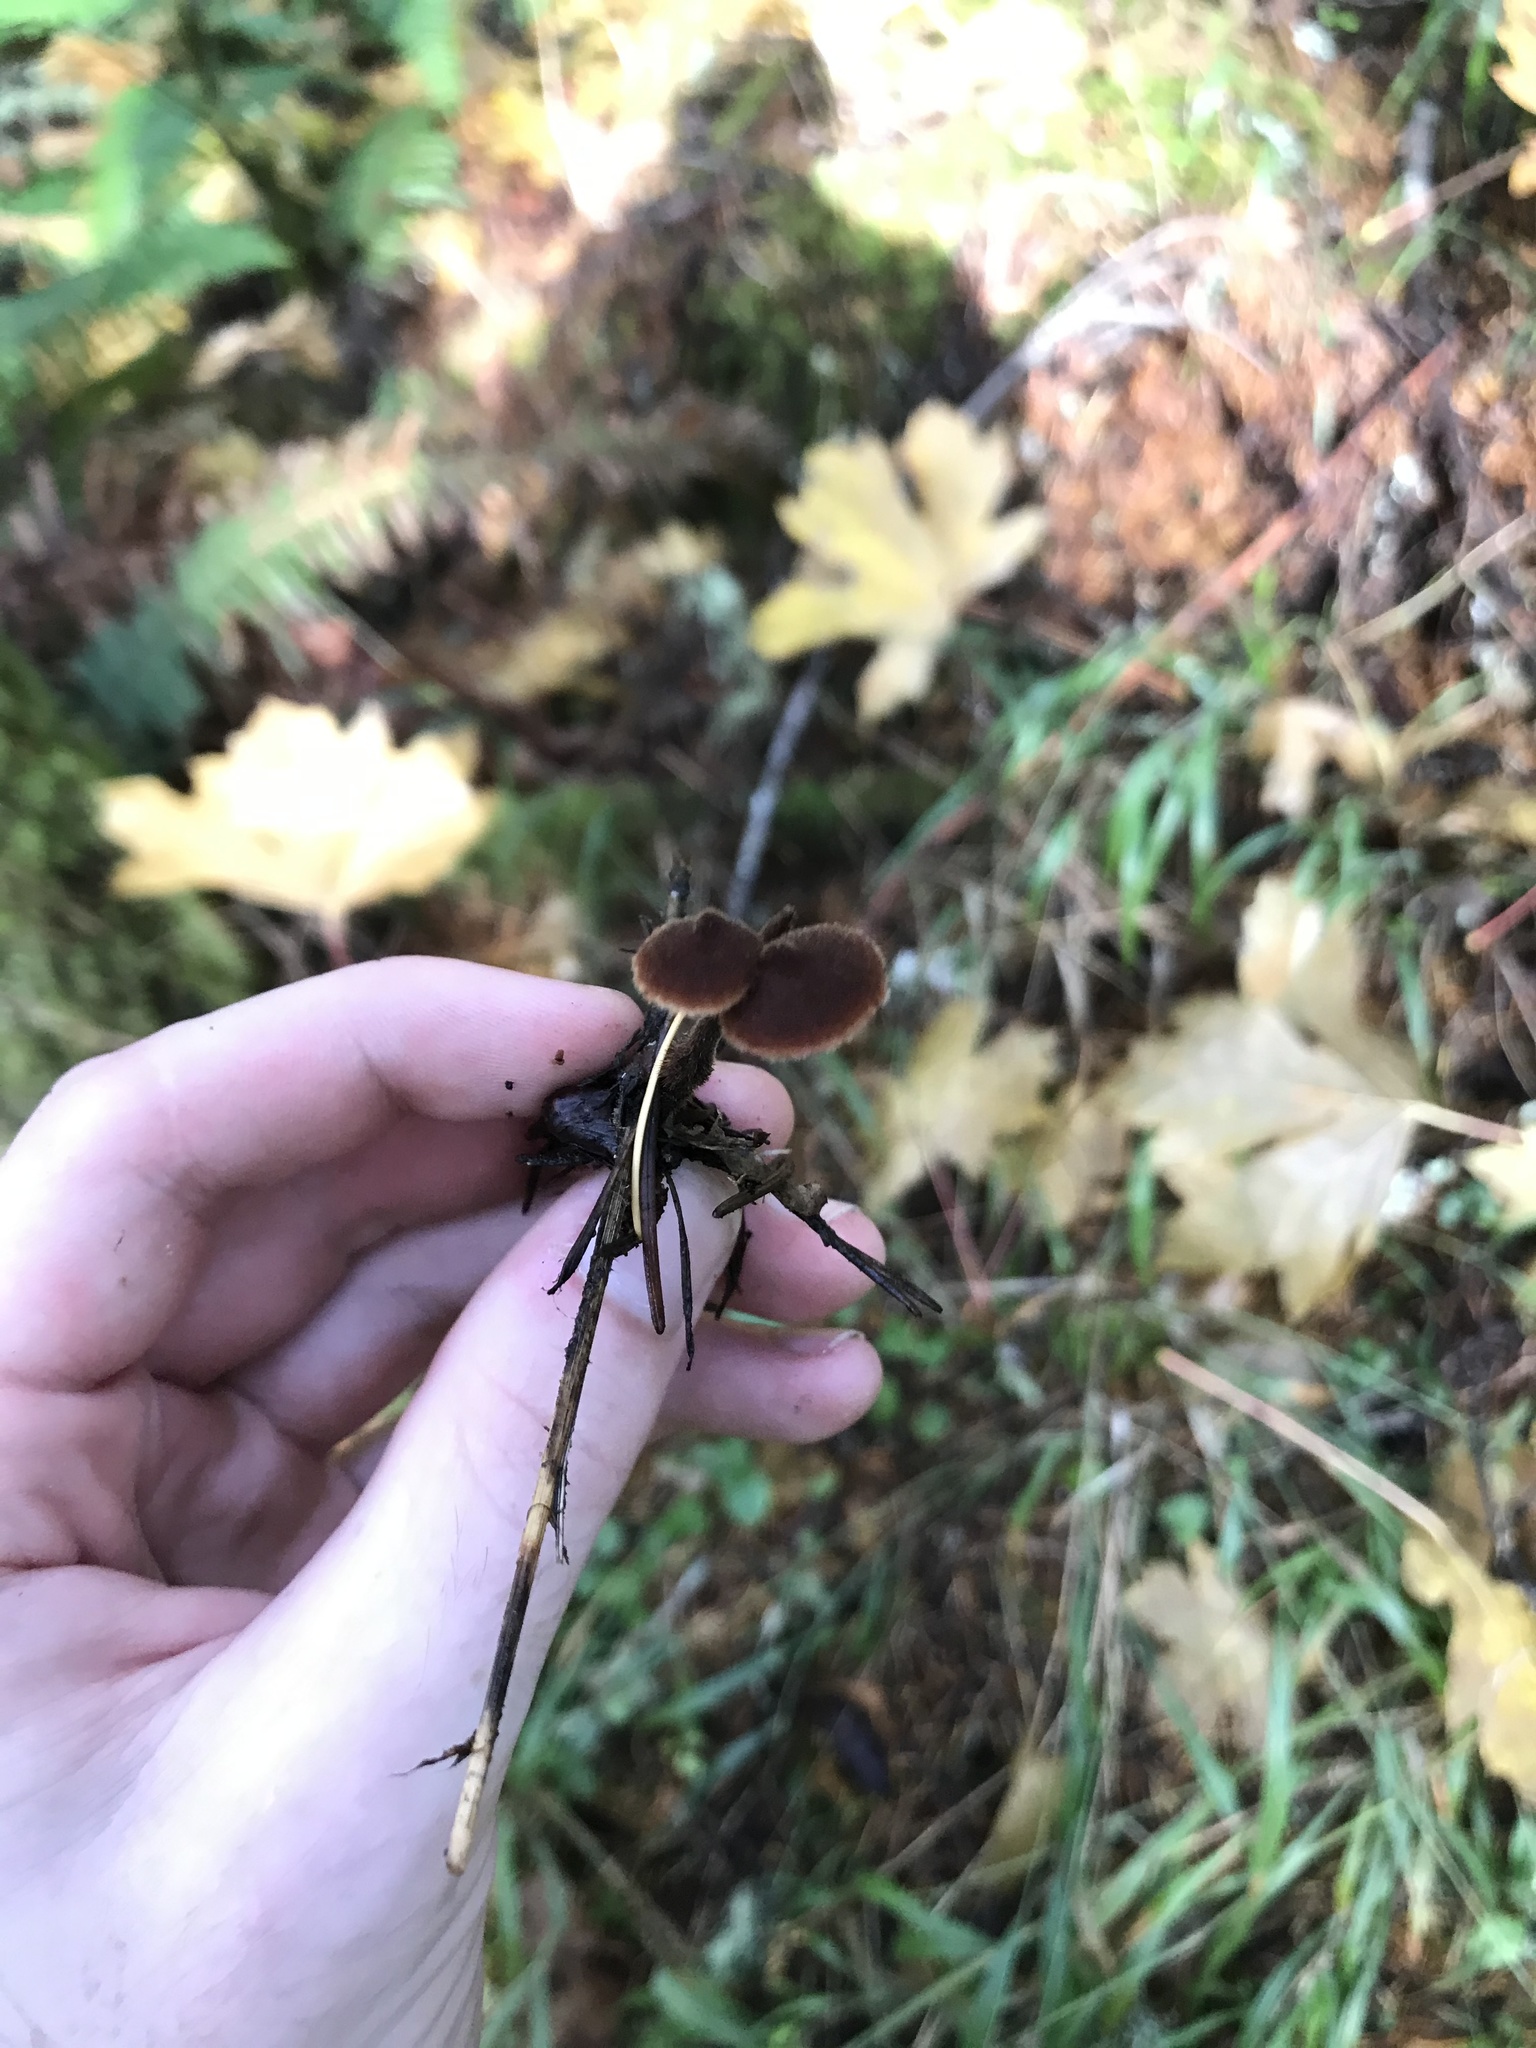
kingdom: Fungi
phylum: Basidiomycota
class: Agaricomycetes
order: Russulales
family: Auriscalpiaceae
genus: Auriscalpium
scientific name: Auriscalpium vulgare
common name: Earpick fungus
